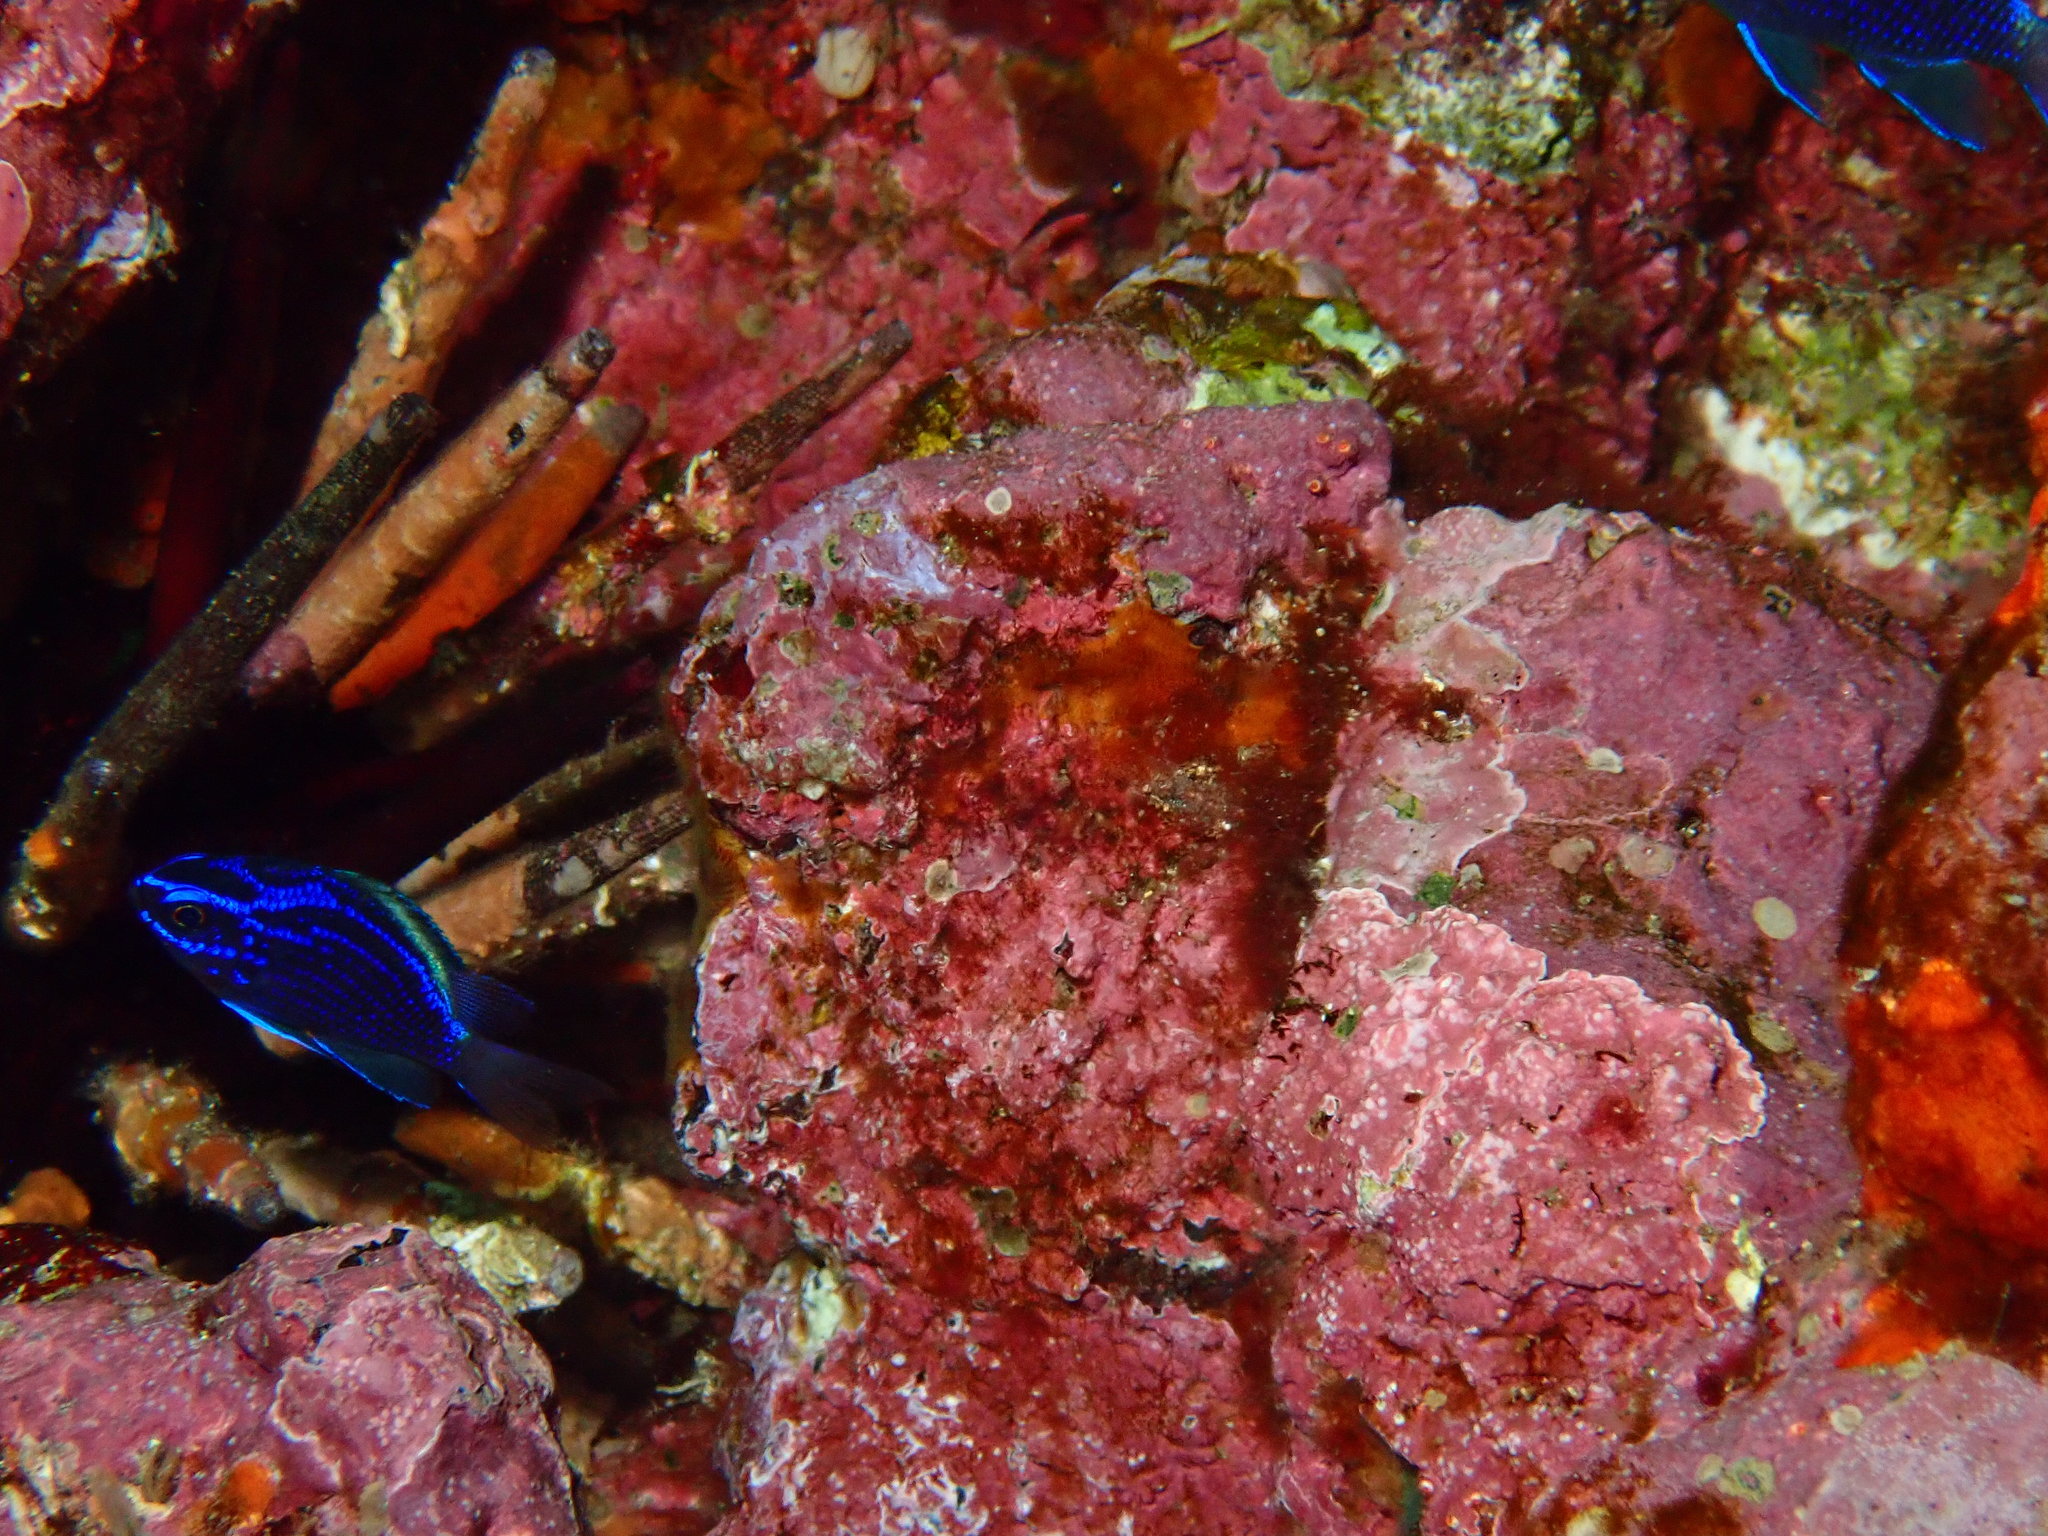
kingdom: Animalia
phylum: Chordata
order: Perciformes
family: Pomacentridae
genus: Chromis
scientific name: Chromis alta
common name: Oval chromis
